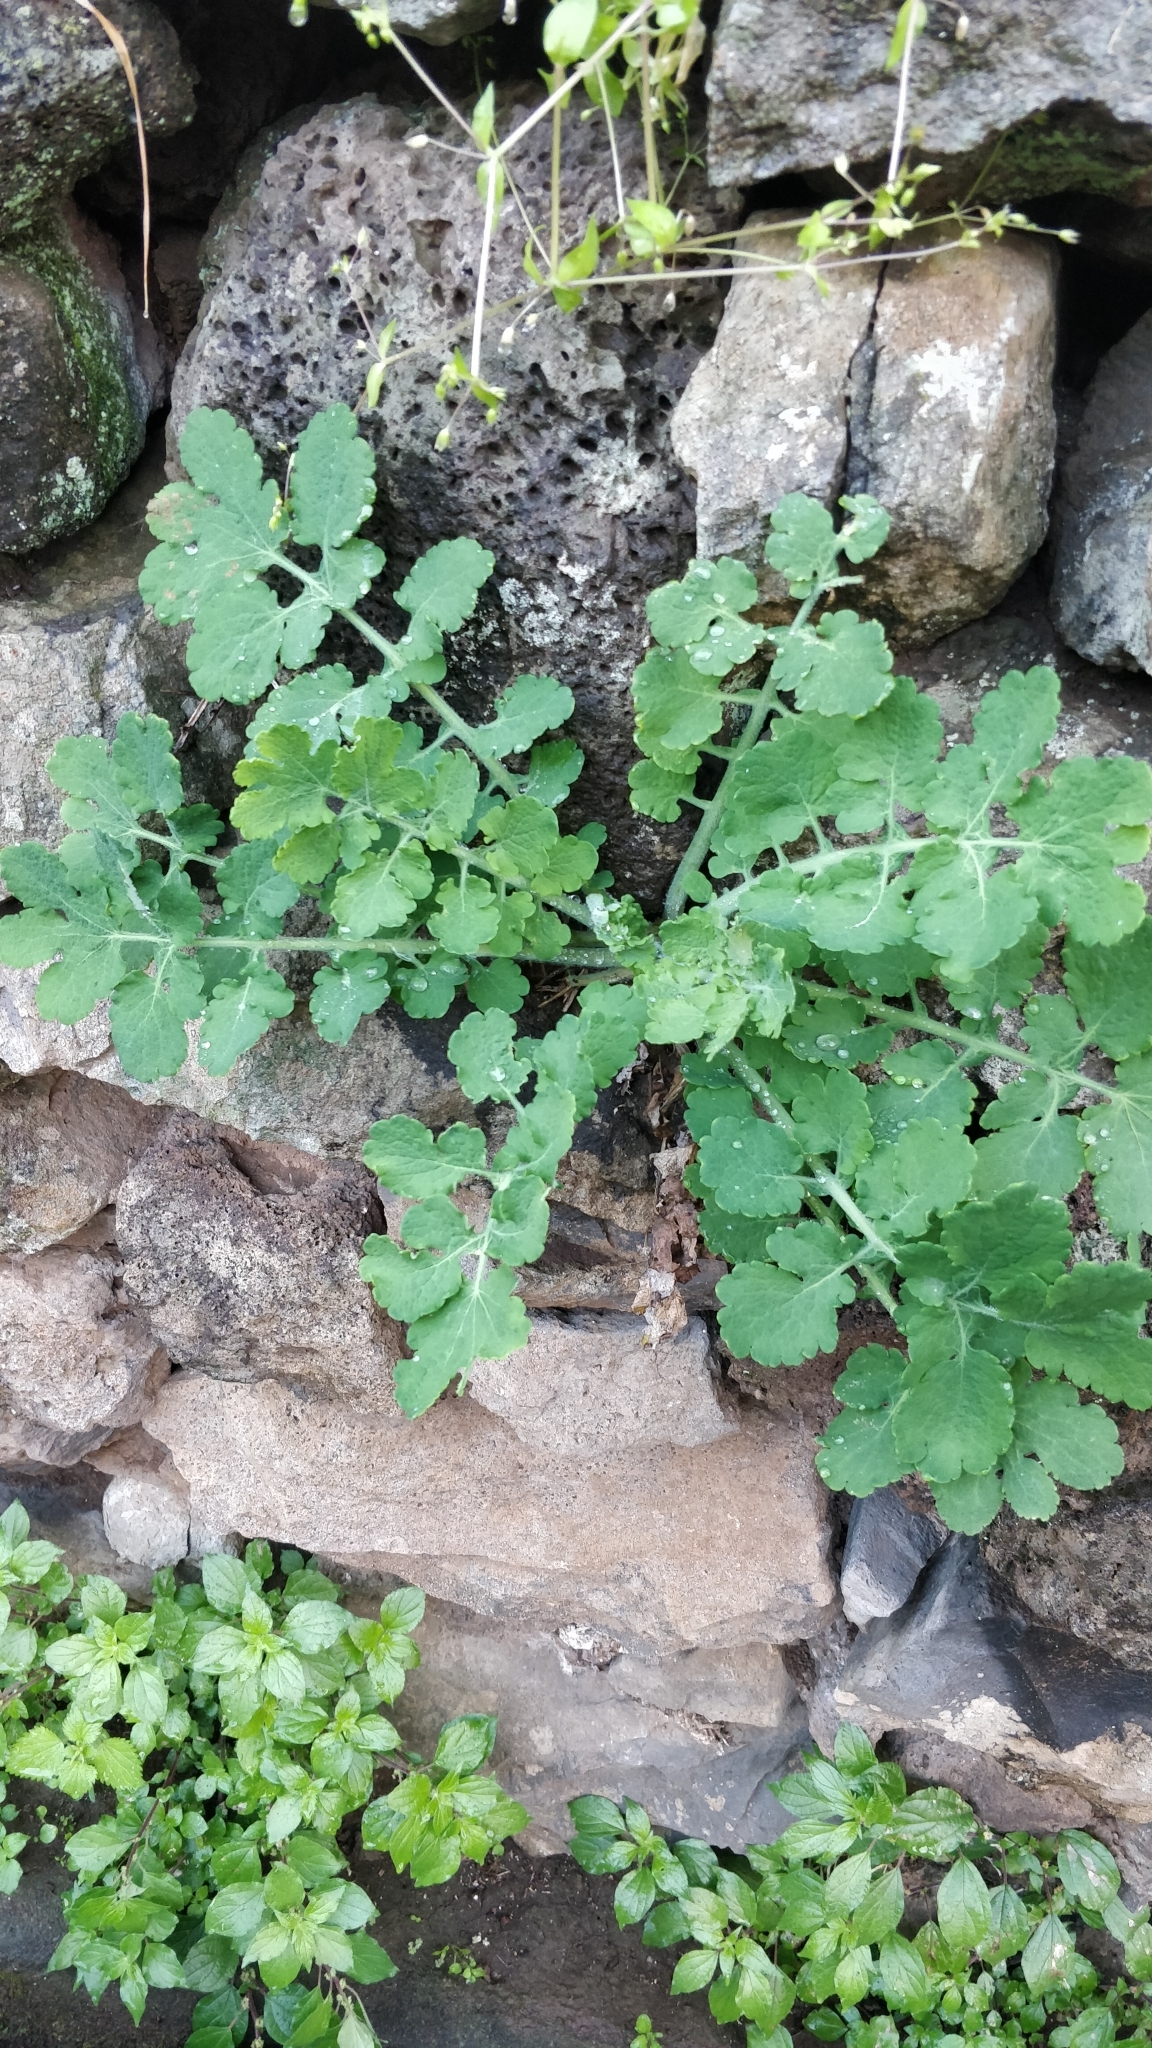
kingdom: Plantae
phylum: Tracheophyta
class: Magnoliopsida
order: Ranunculales
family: Papaveraceae
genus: Chelidonium
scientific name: Chelidonium majus
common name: Greater celandine
